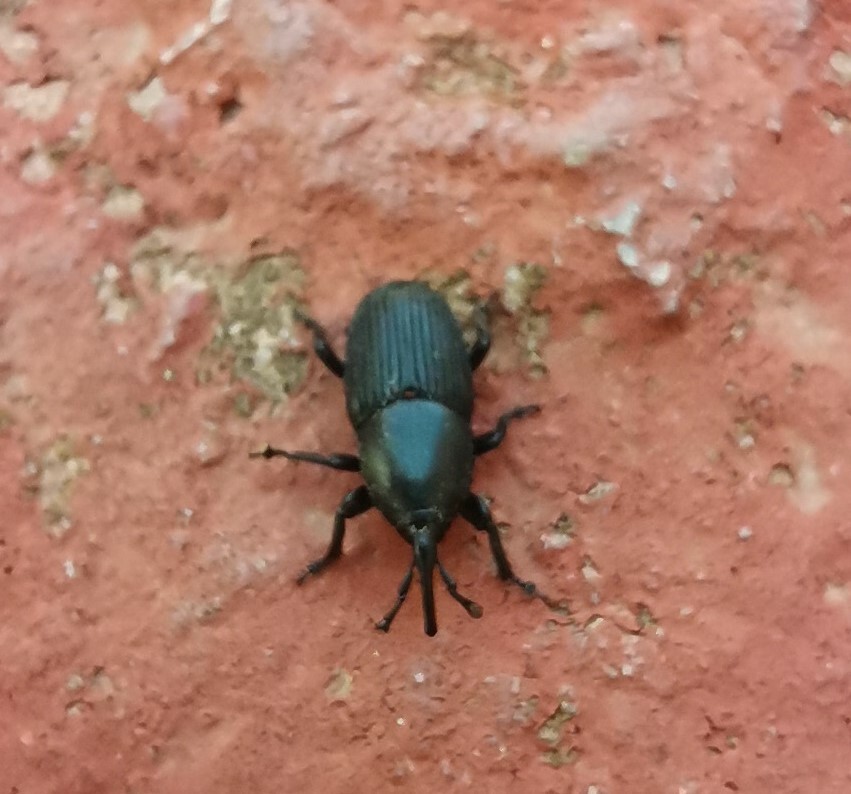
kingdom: Animalia
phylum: Arthropoda
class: Insecta
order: Coleoptera
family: Dryophthoridae
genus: Scyphophorus
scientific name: Scyphophorus acupunctatus
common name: Weevil
